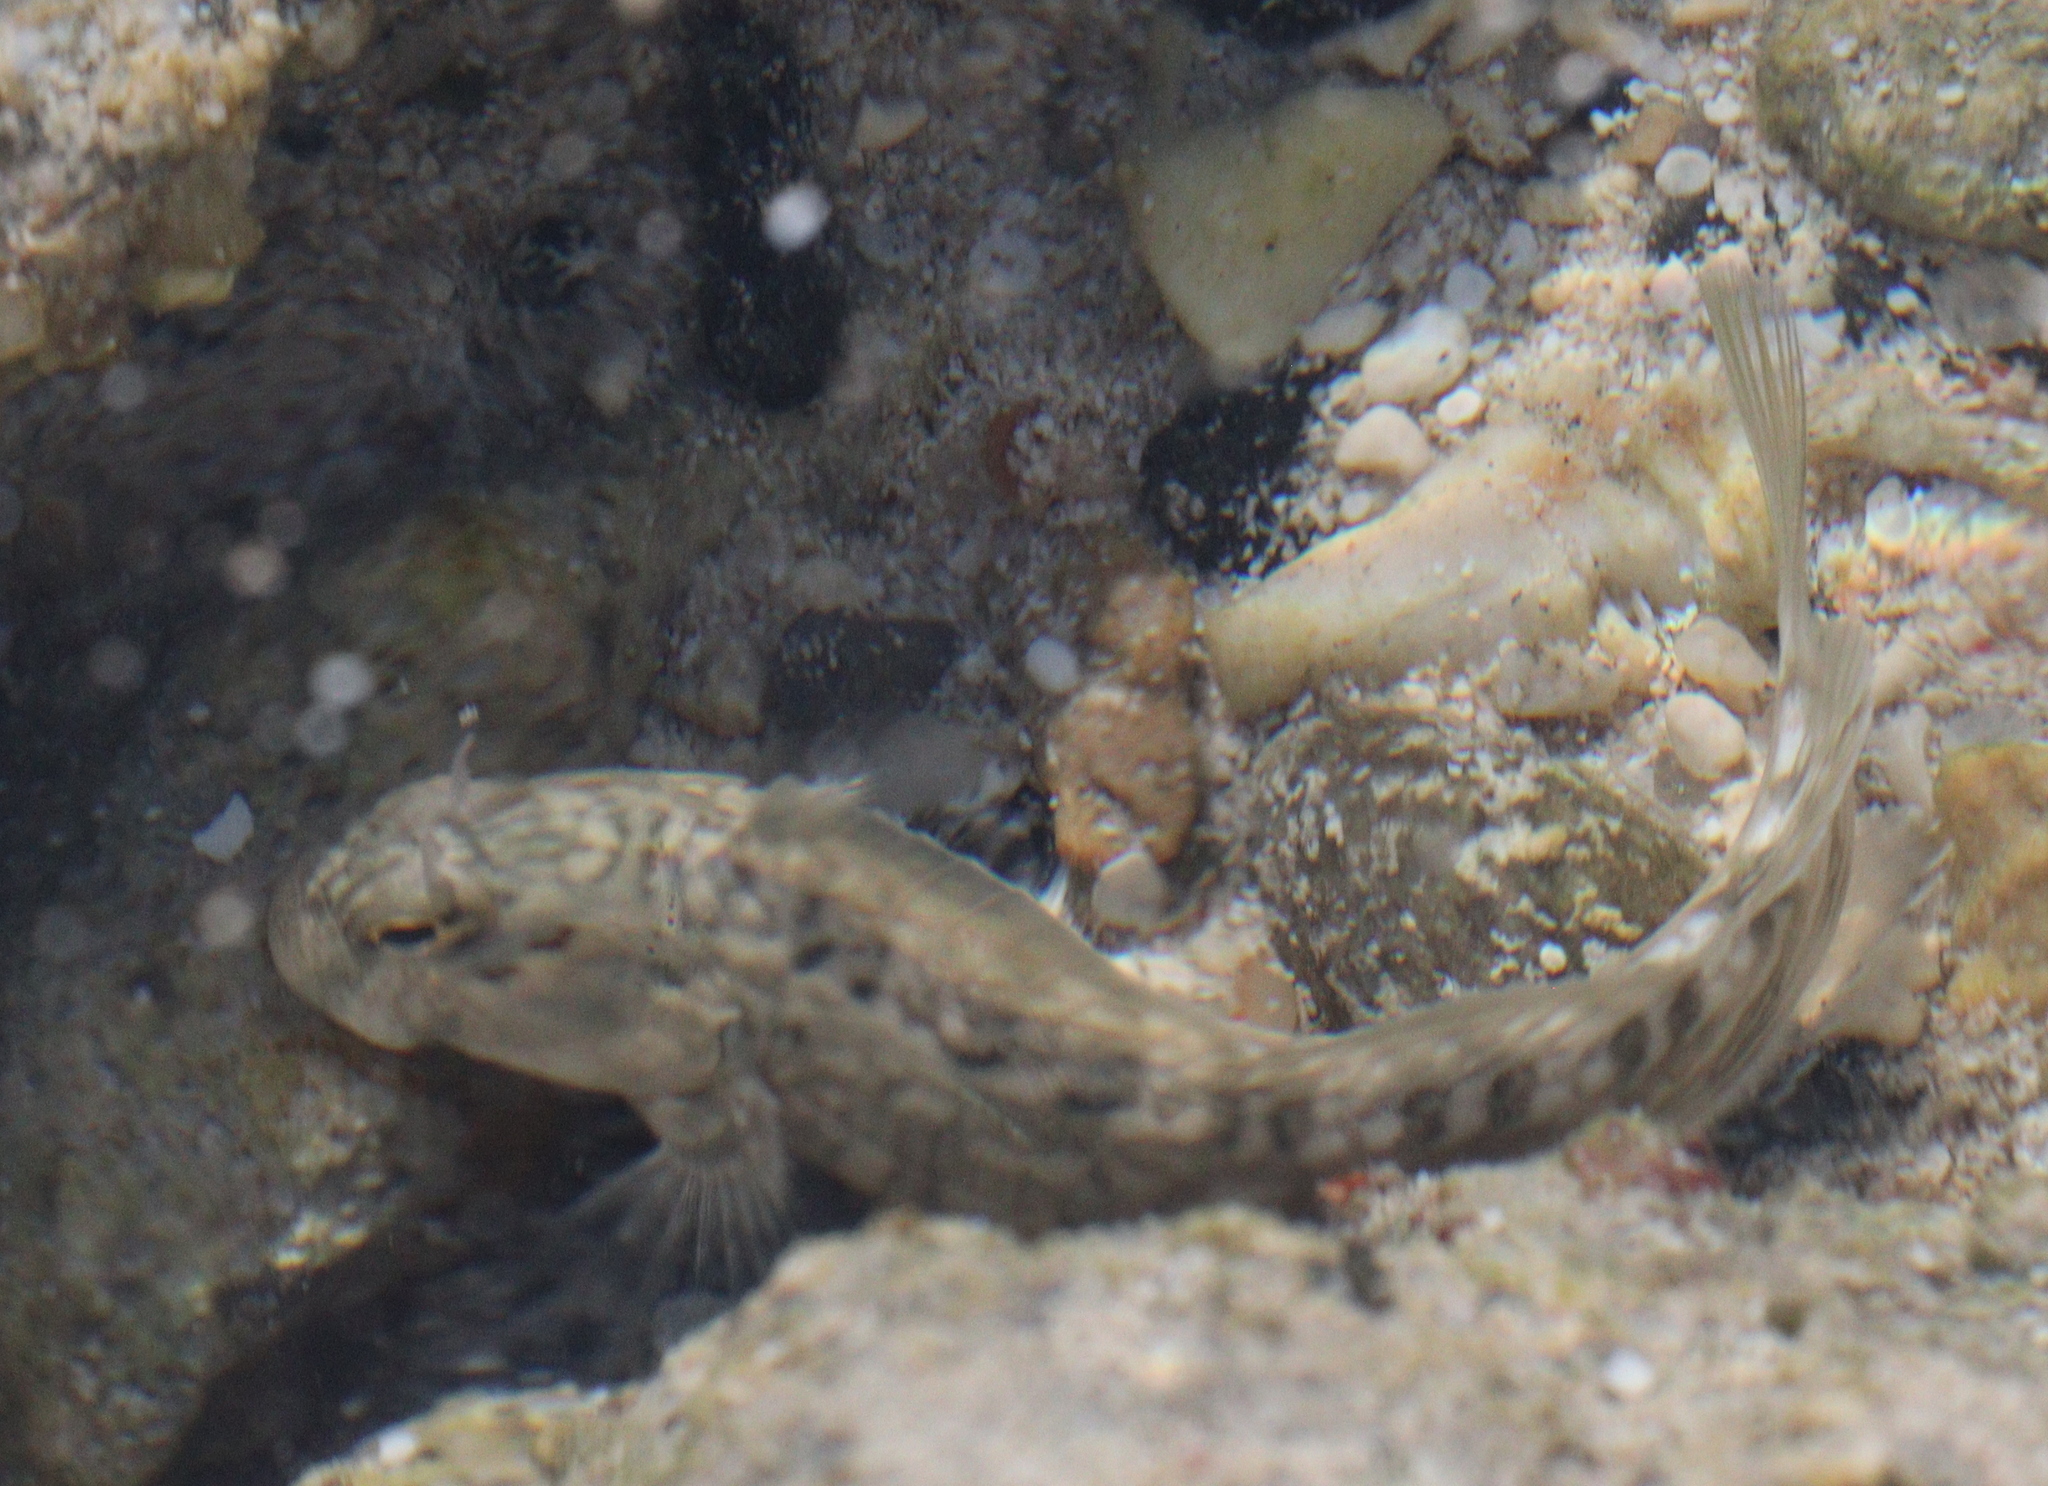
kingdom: Animalia
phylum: Chordata
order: Perciformes
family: Blenniidae
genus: Istiblennius
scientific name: Istiblennius rivulatus
